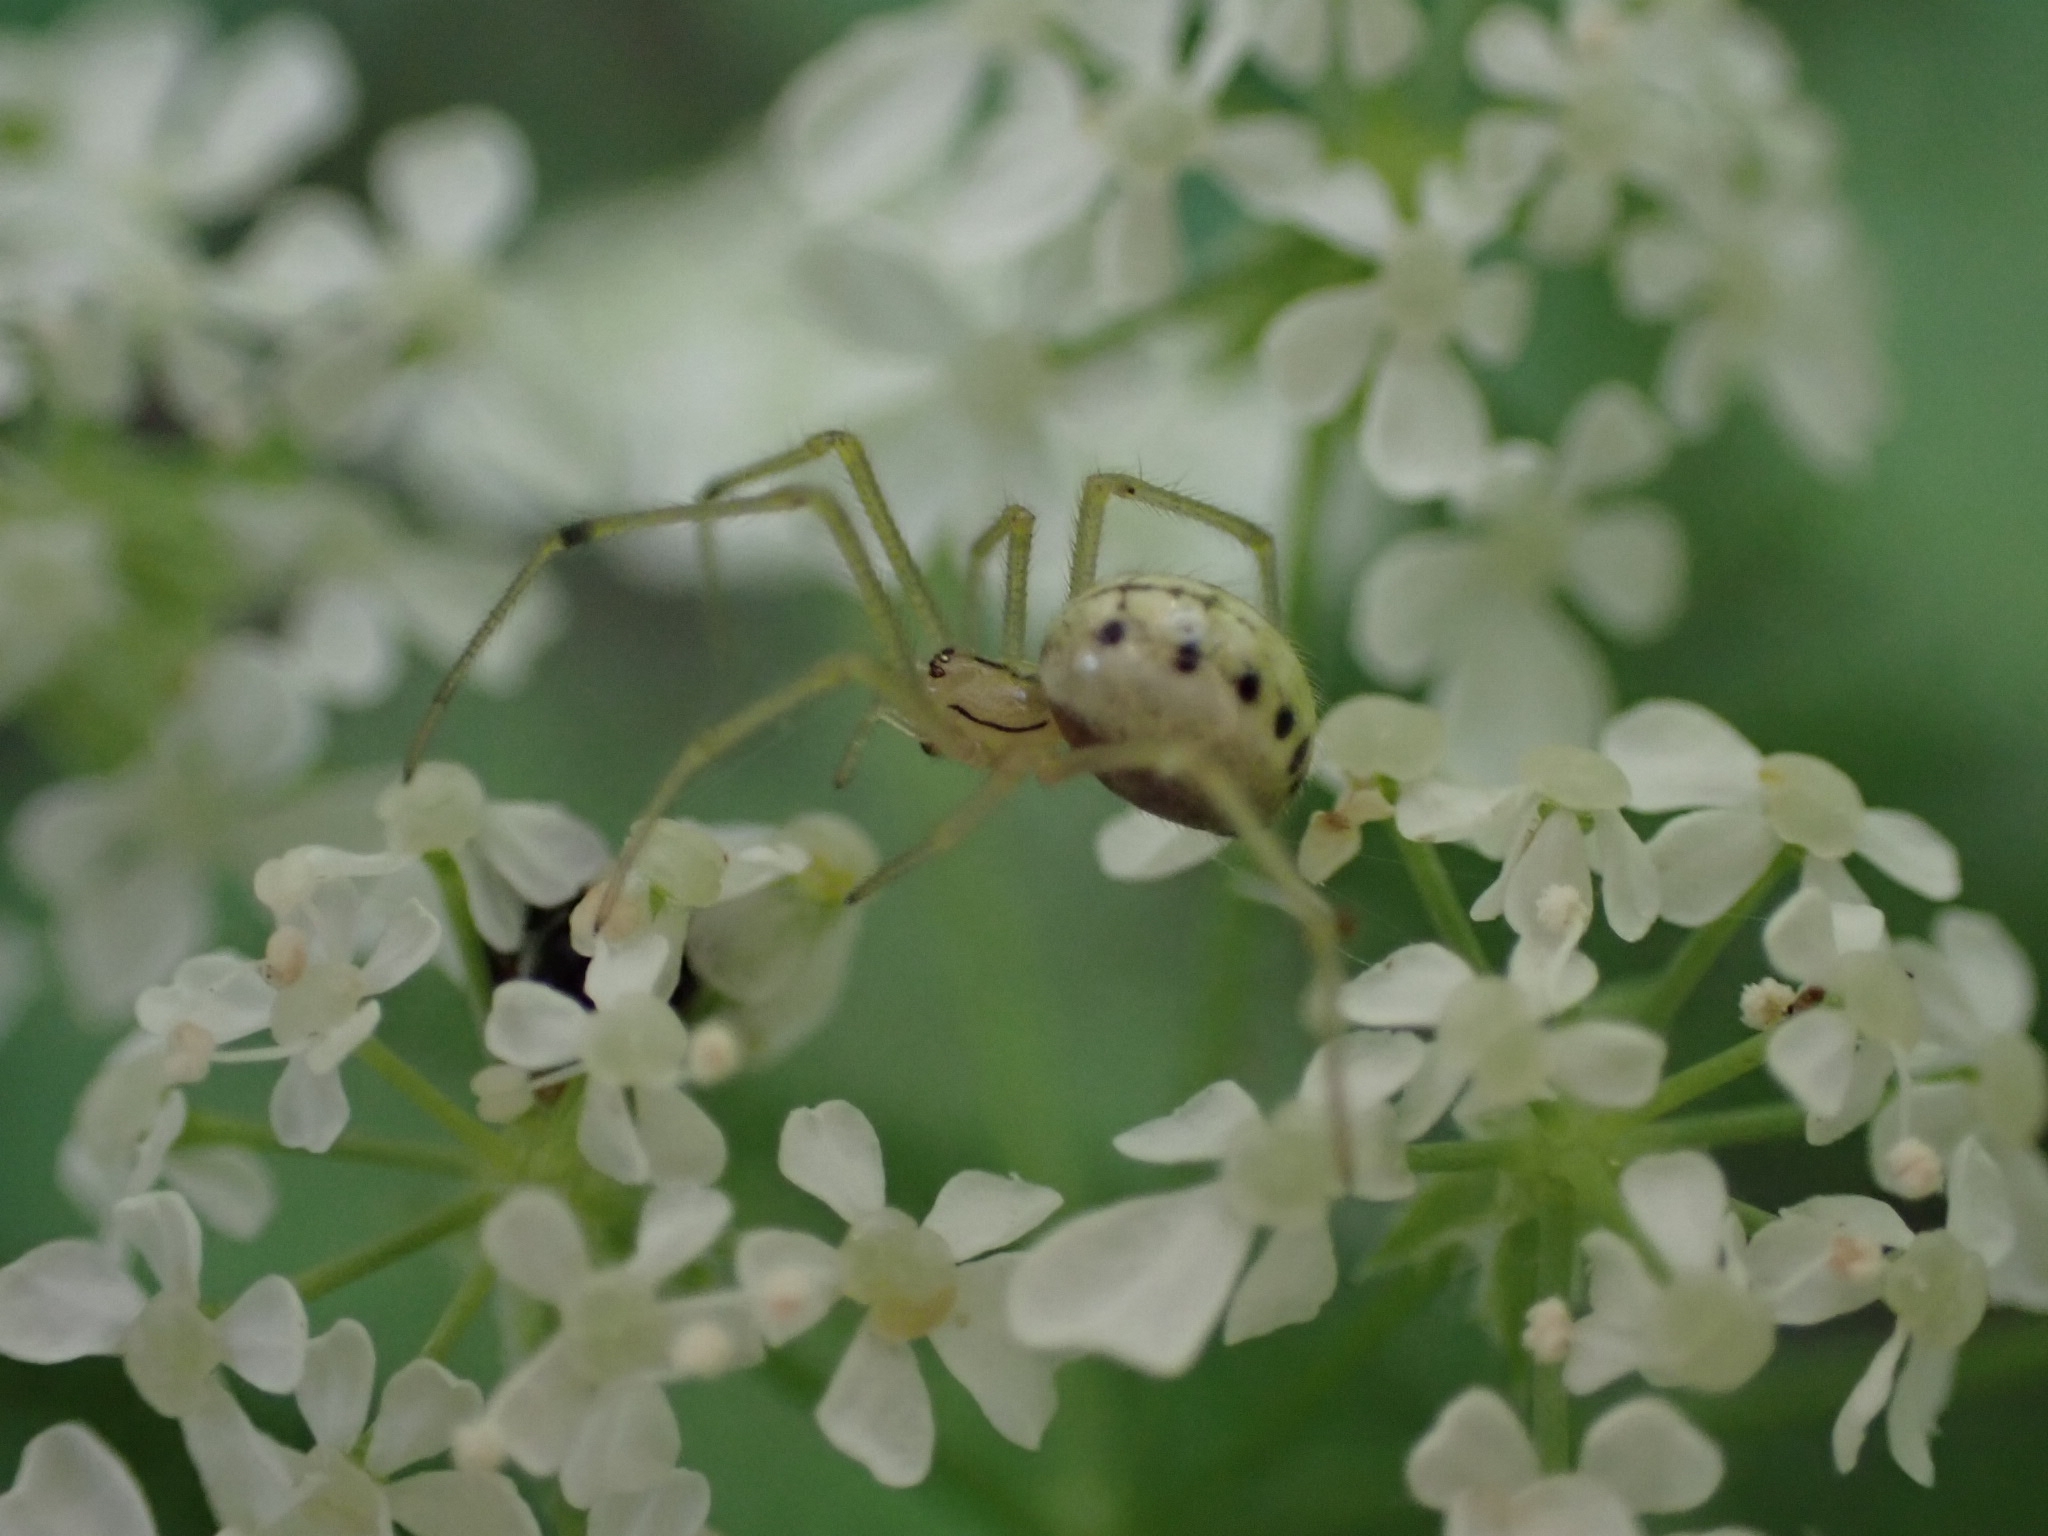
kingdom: Animalia
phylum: Arthropoda
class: Arachnida
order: Araneae
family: Theridiidae
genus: Enoplognatha
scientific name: Enoplognatha ovata
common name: Common candy-striped spider
